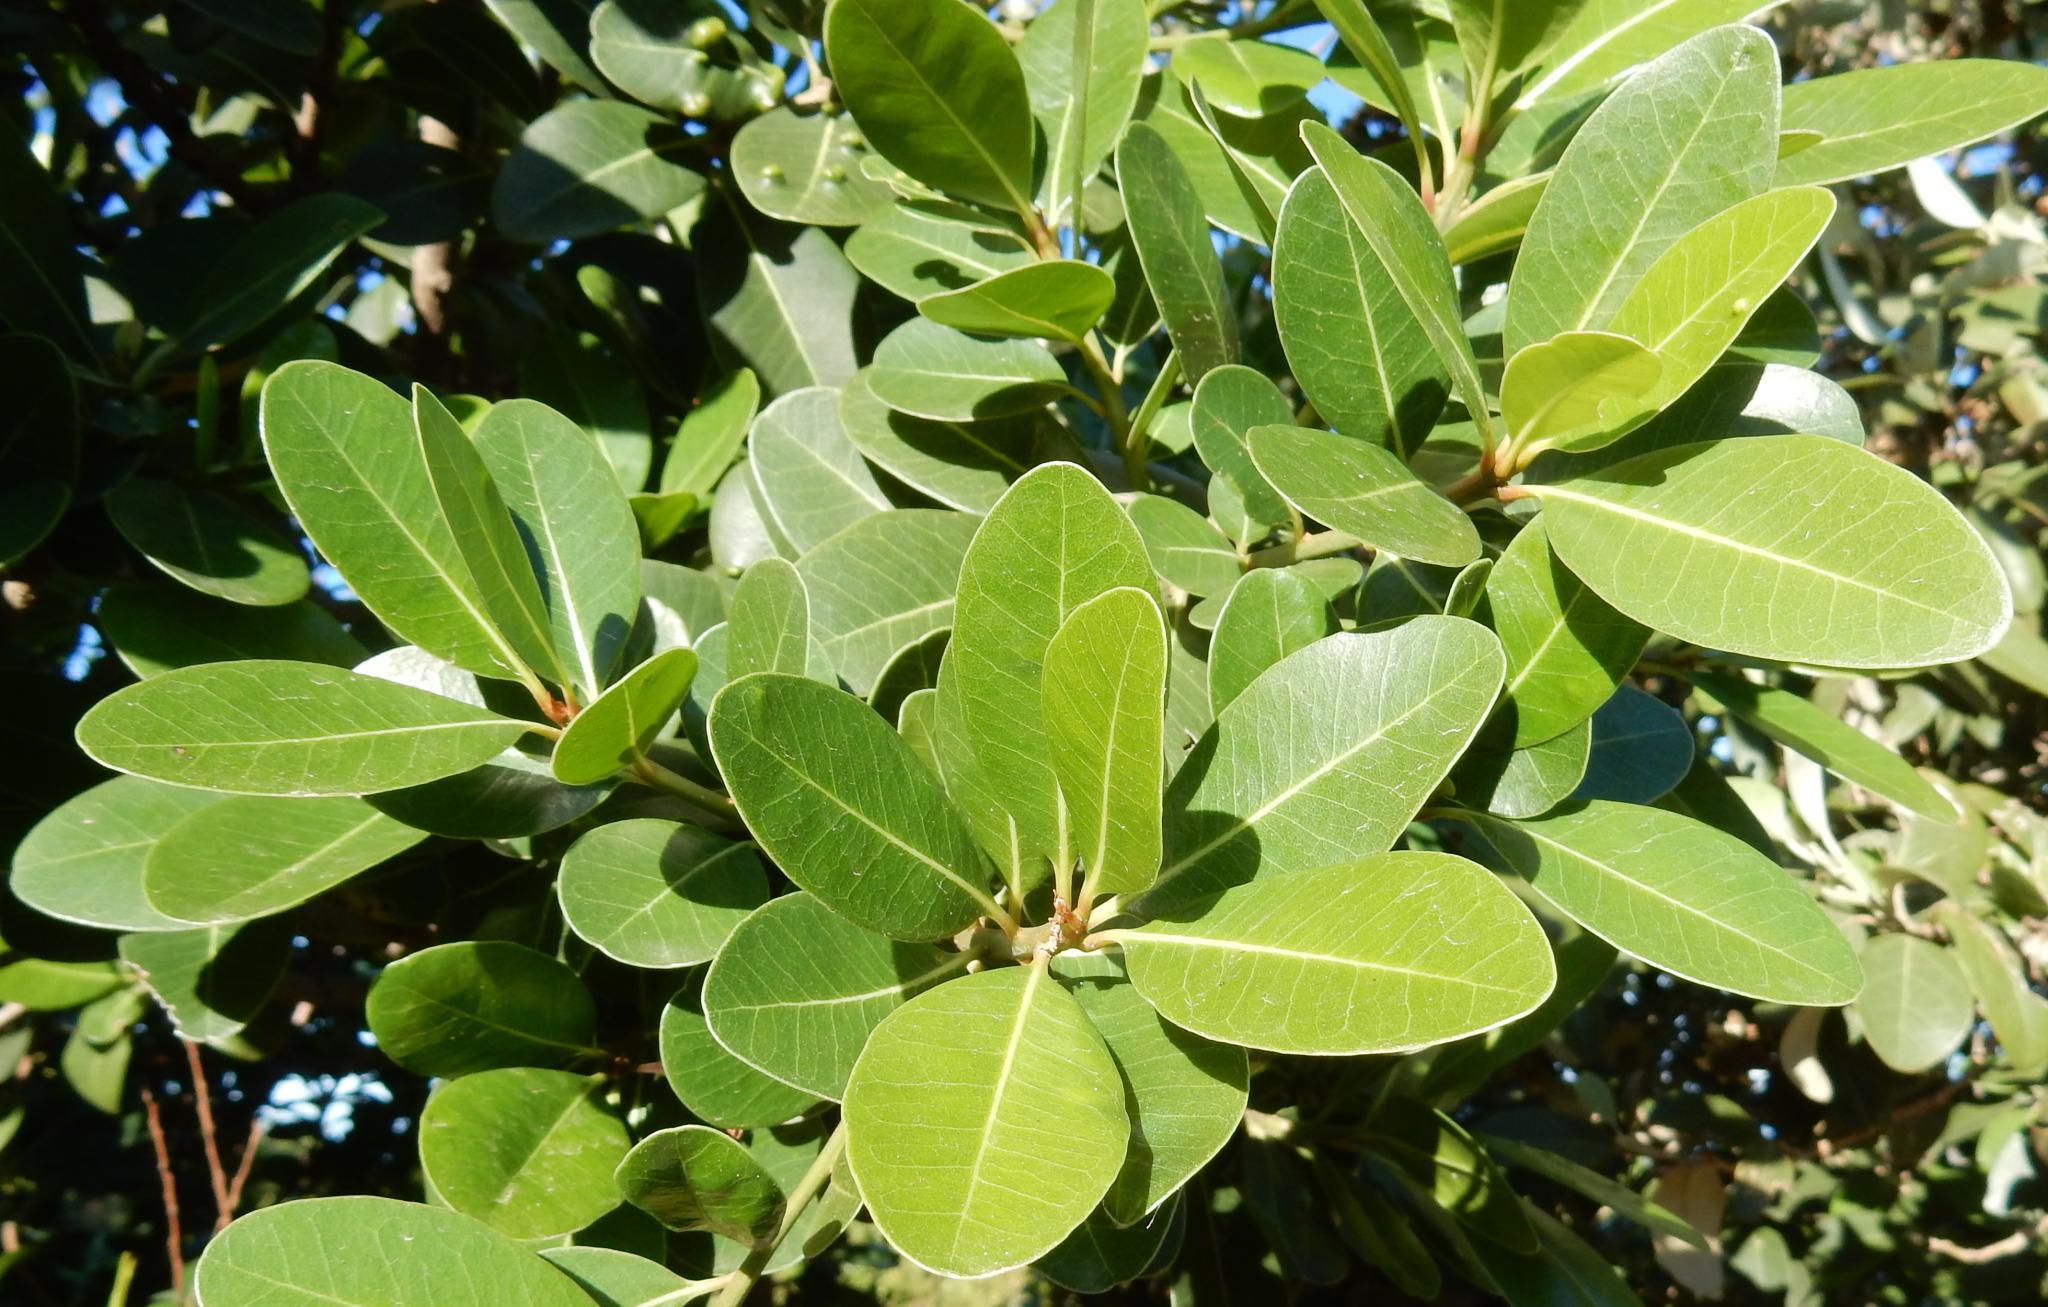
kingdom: Plantae
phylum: Tracheophyta
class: Magnoliopsida
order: Ericales
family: Sapotaceae
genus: Sideroxylon
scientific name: Sideroxylon inerme
